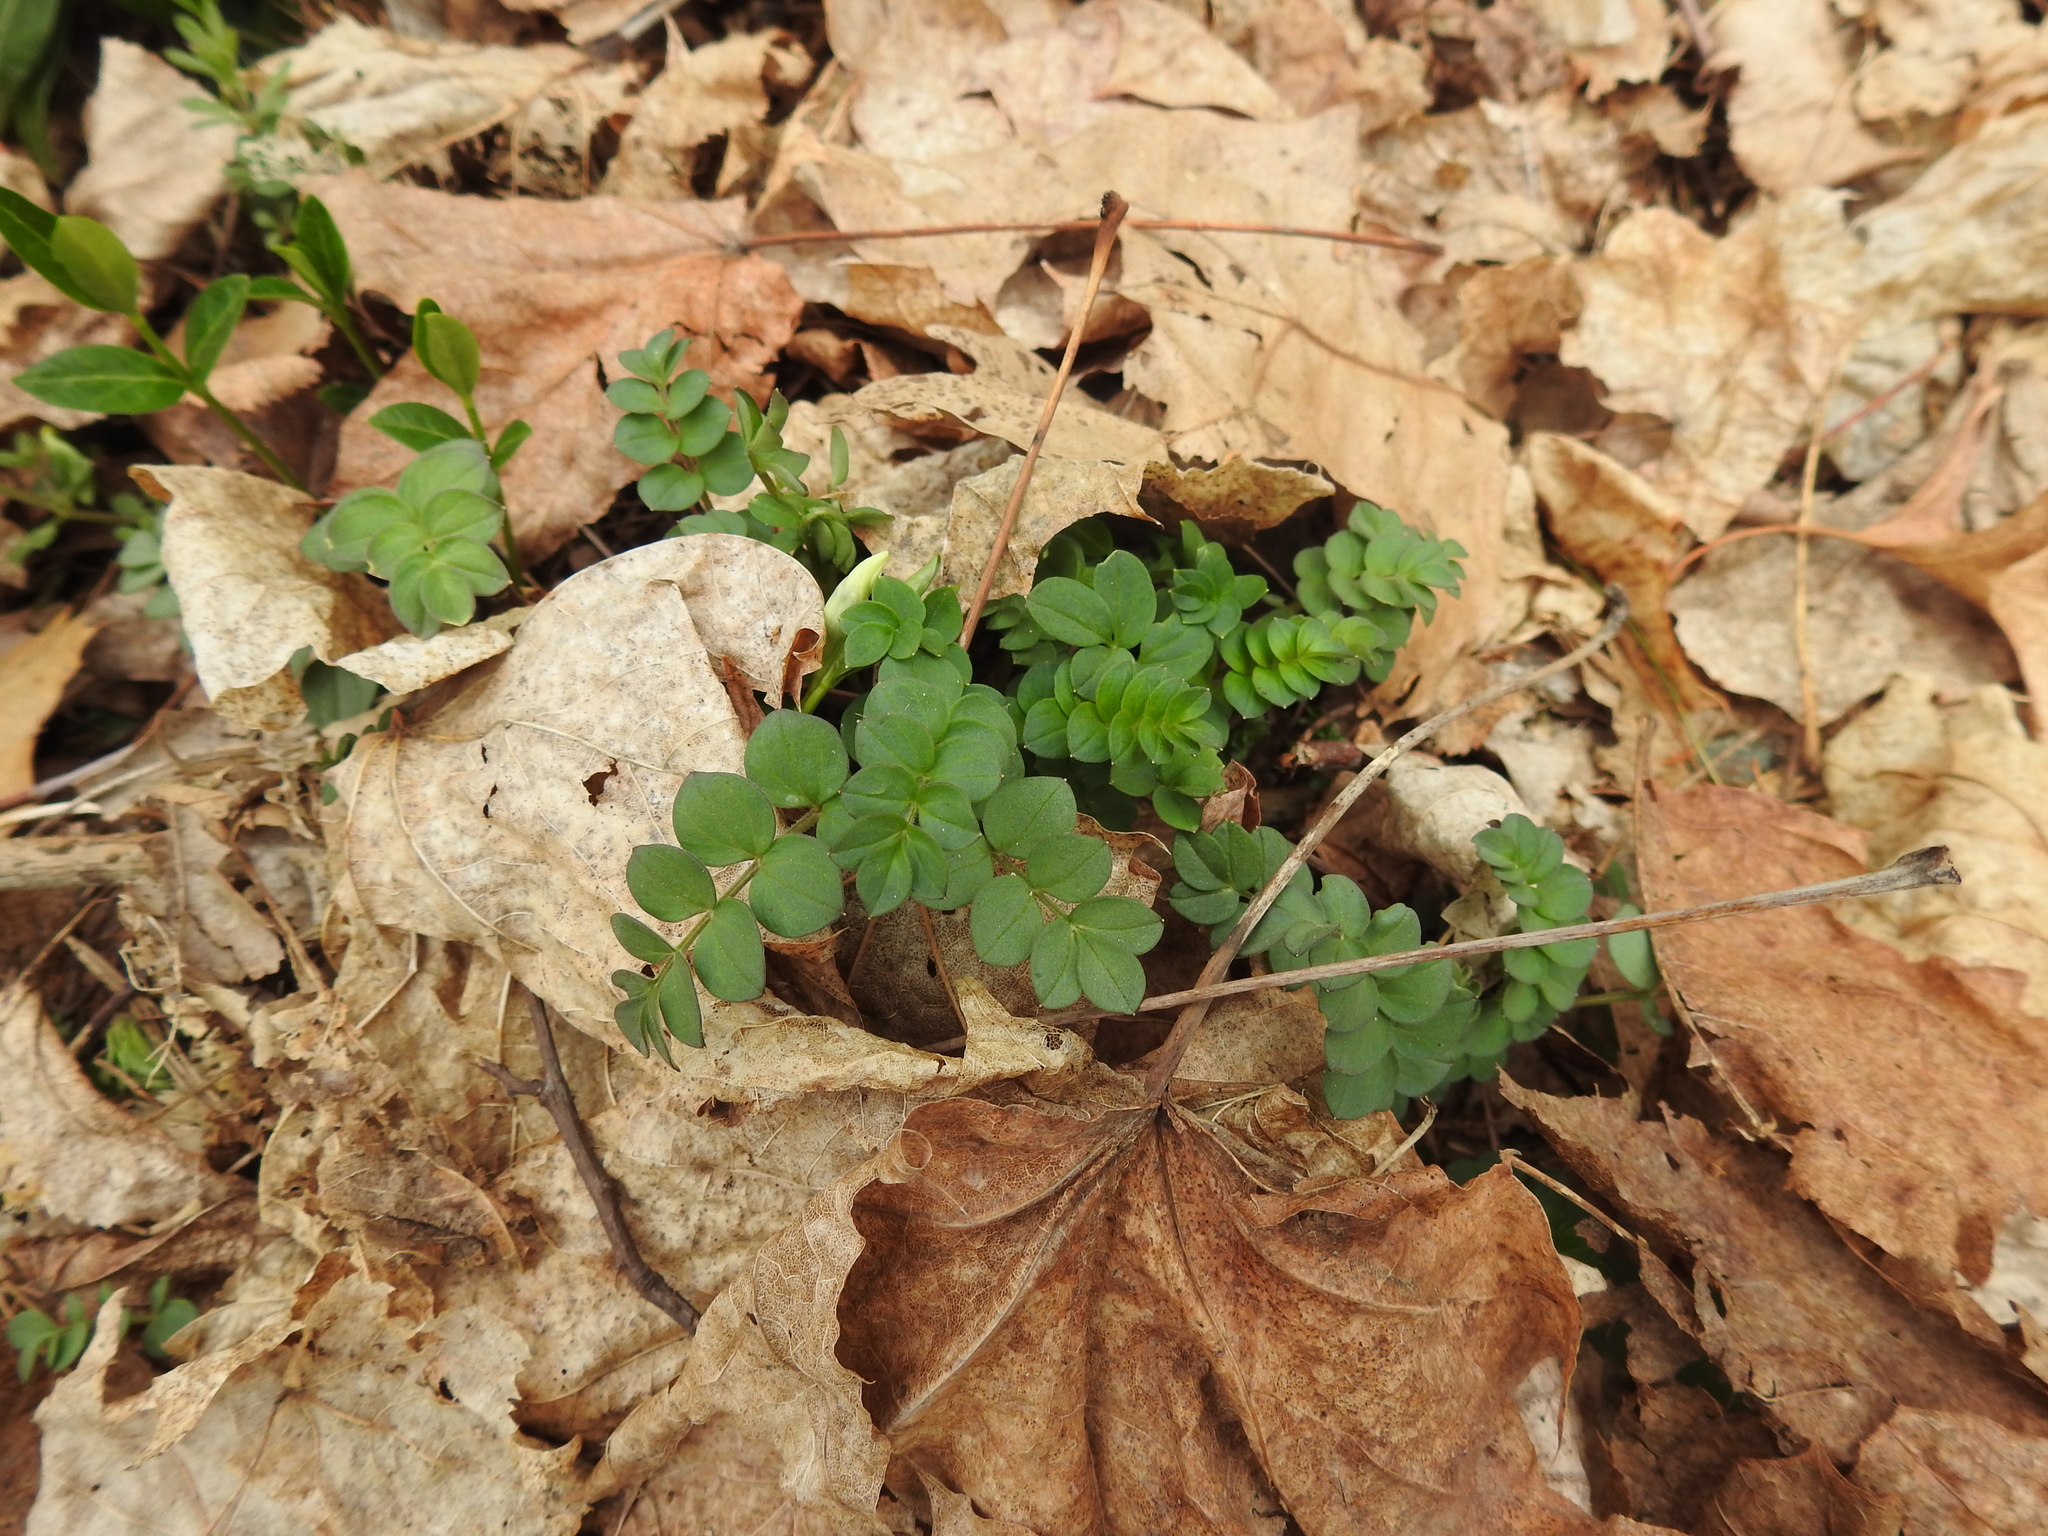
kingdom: Plantae
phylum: Tracheophyta
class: Magnoliopsida
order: Fabales
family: Fabaceae
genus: Coronilla
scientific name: Coronilla varia
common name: Crownvetch
